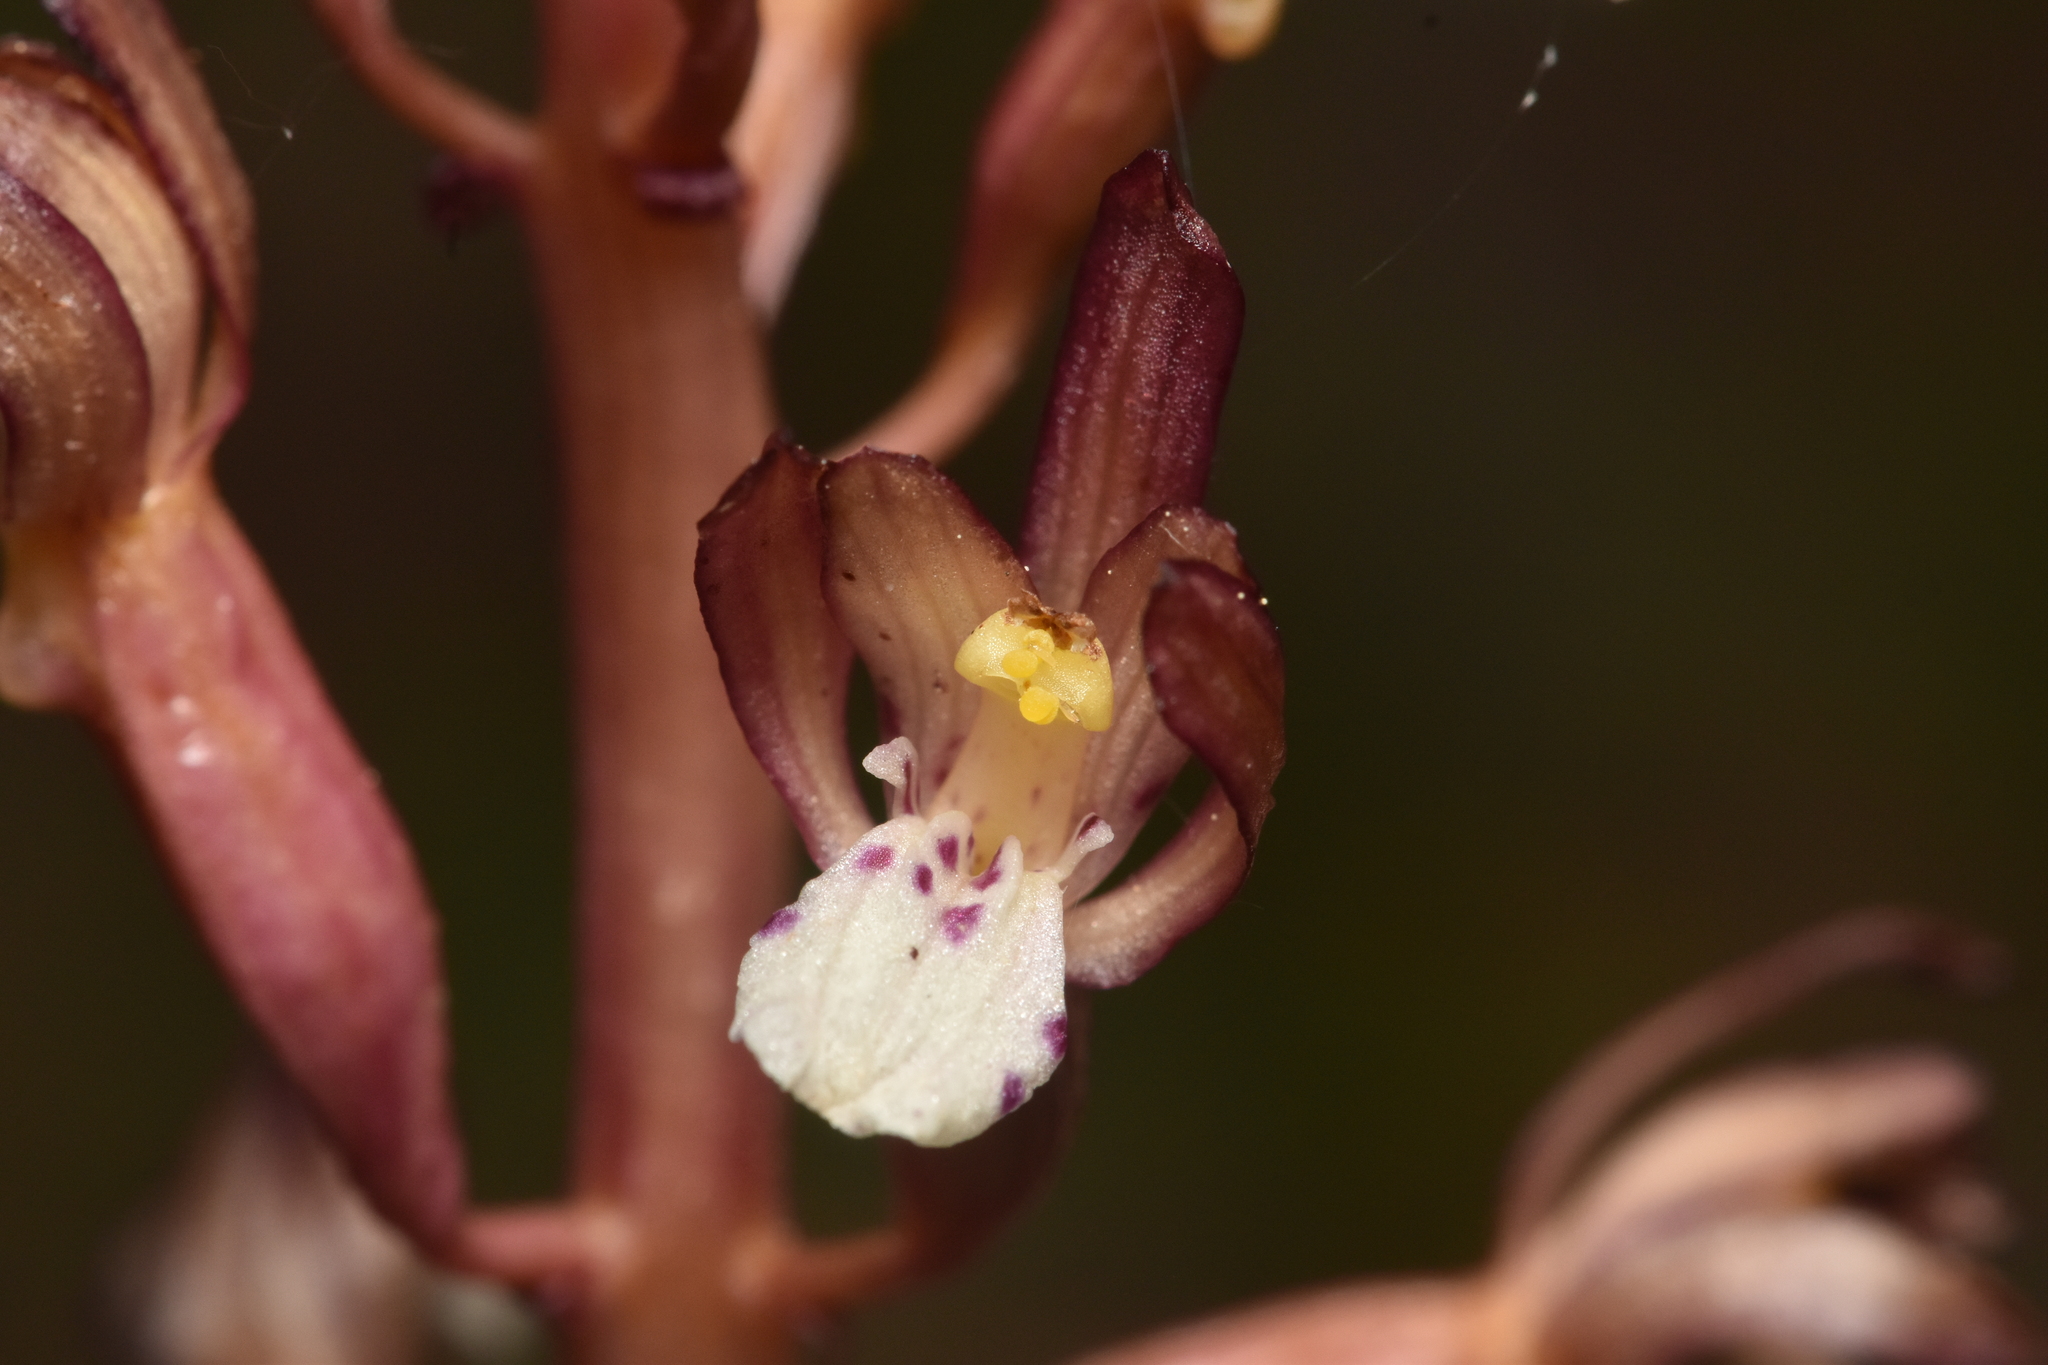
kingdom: Plantae
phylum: Tracheophyta
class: Liliopsida
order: Asparagales
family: Orchidaceae
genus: Corallorhiza
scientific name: Corallorhiza maculata
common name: Spotted coralroot
